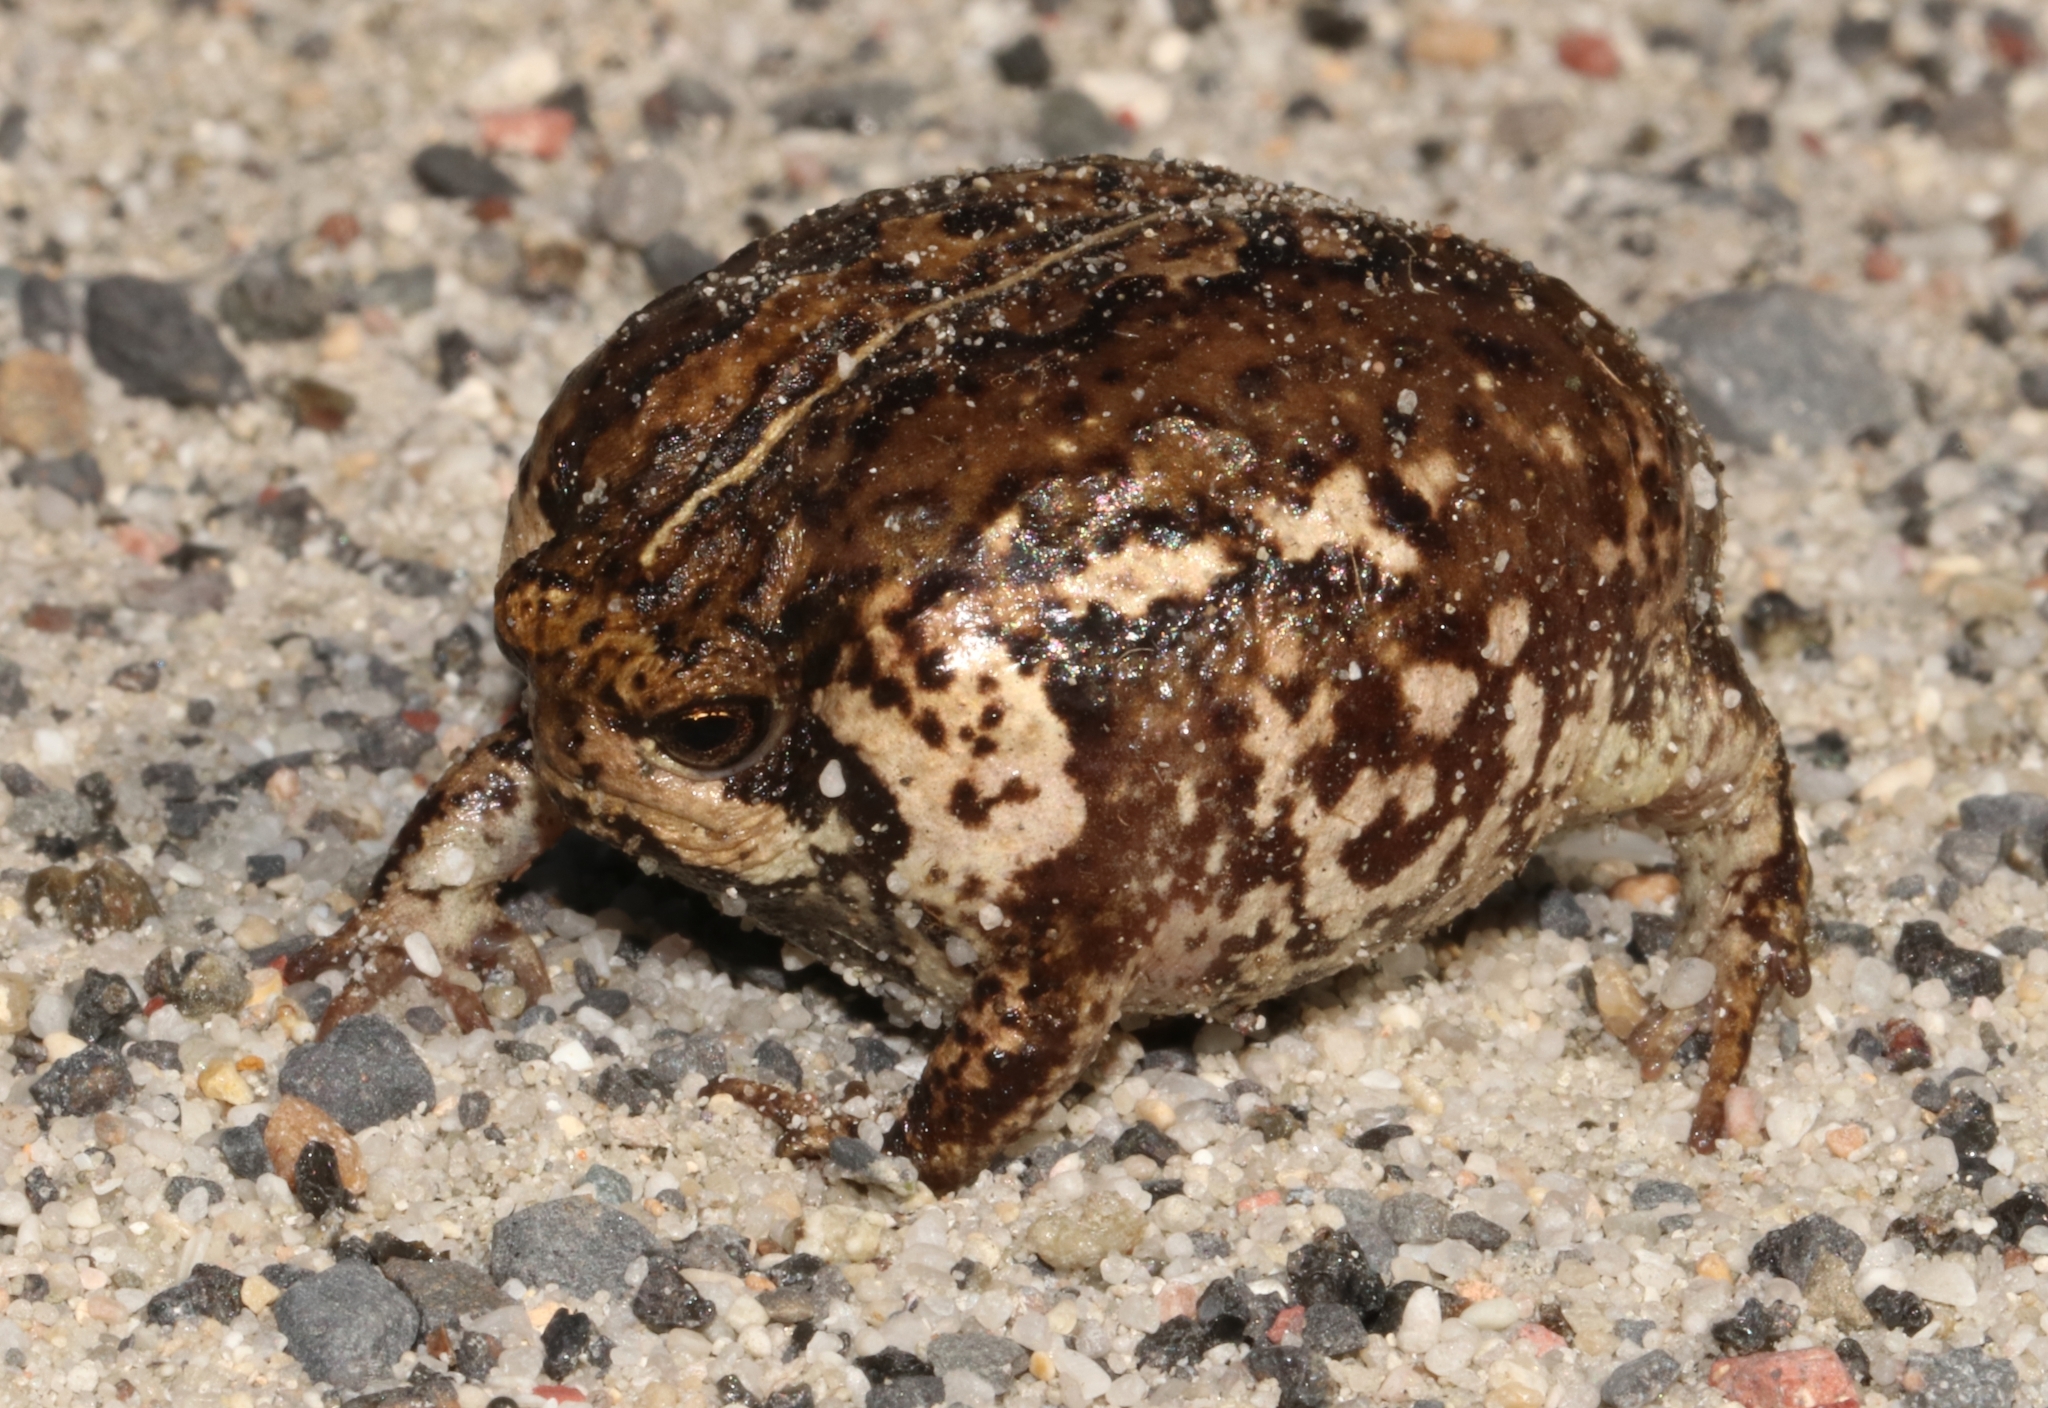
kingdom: Animalia
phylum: Chordata
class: Amphibia
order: Anura
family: Brevicipitidae
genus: Breviceps
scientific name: Breviceps rosei
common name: Rose's short-headed frog
